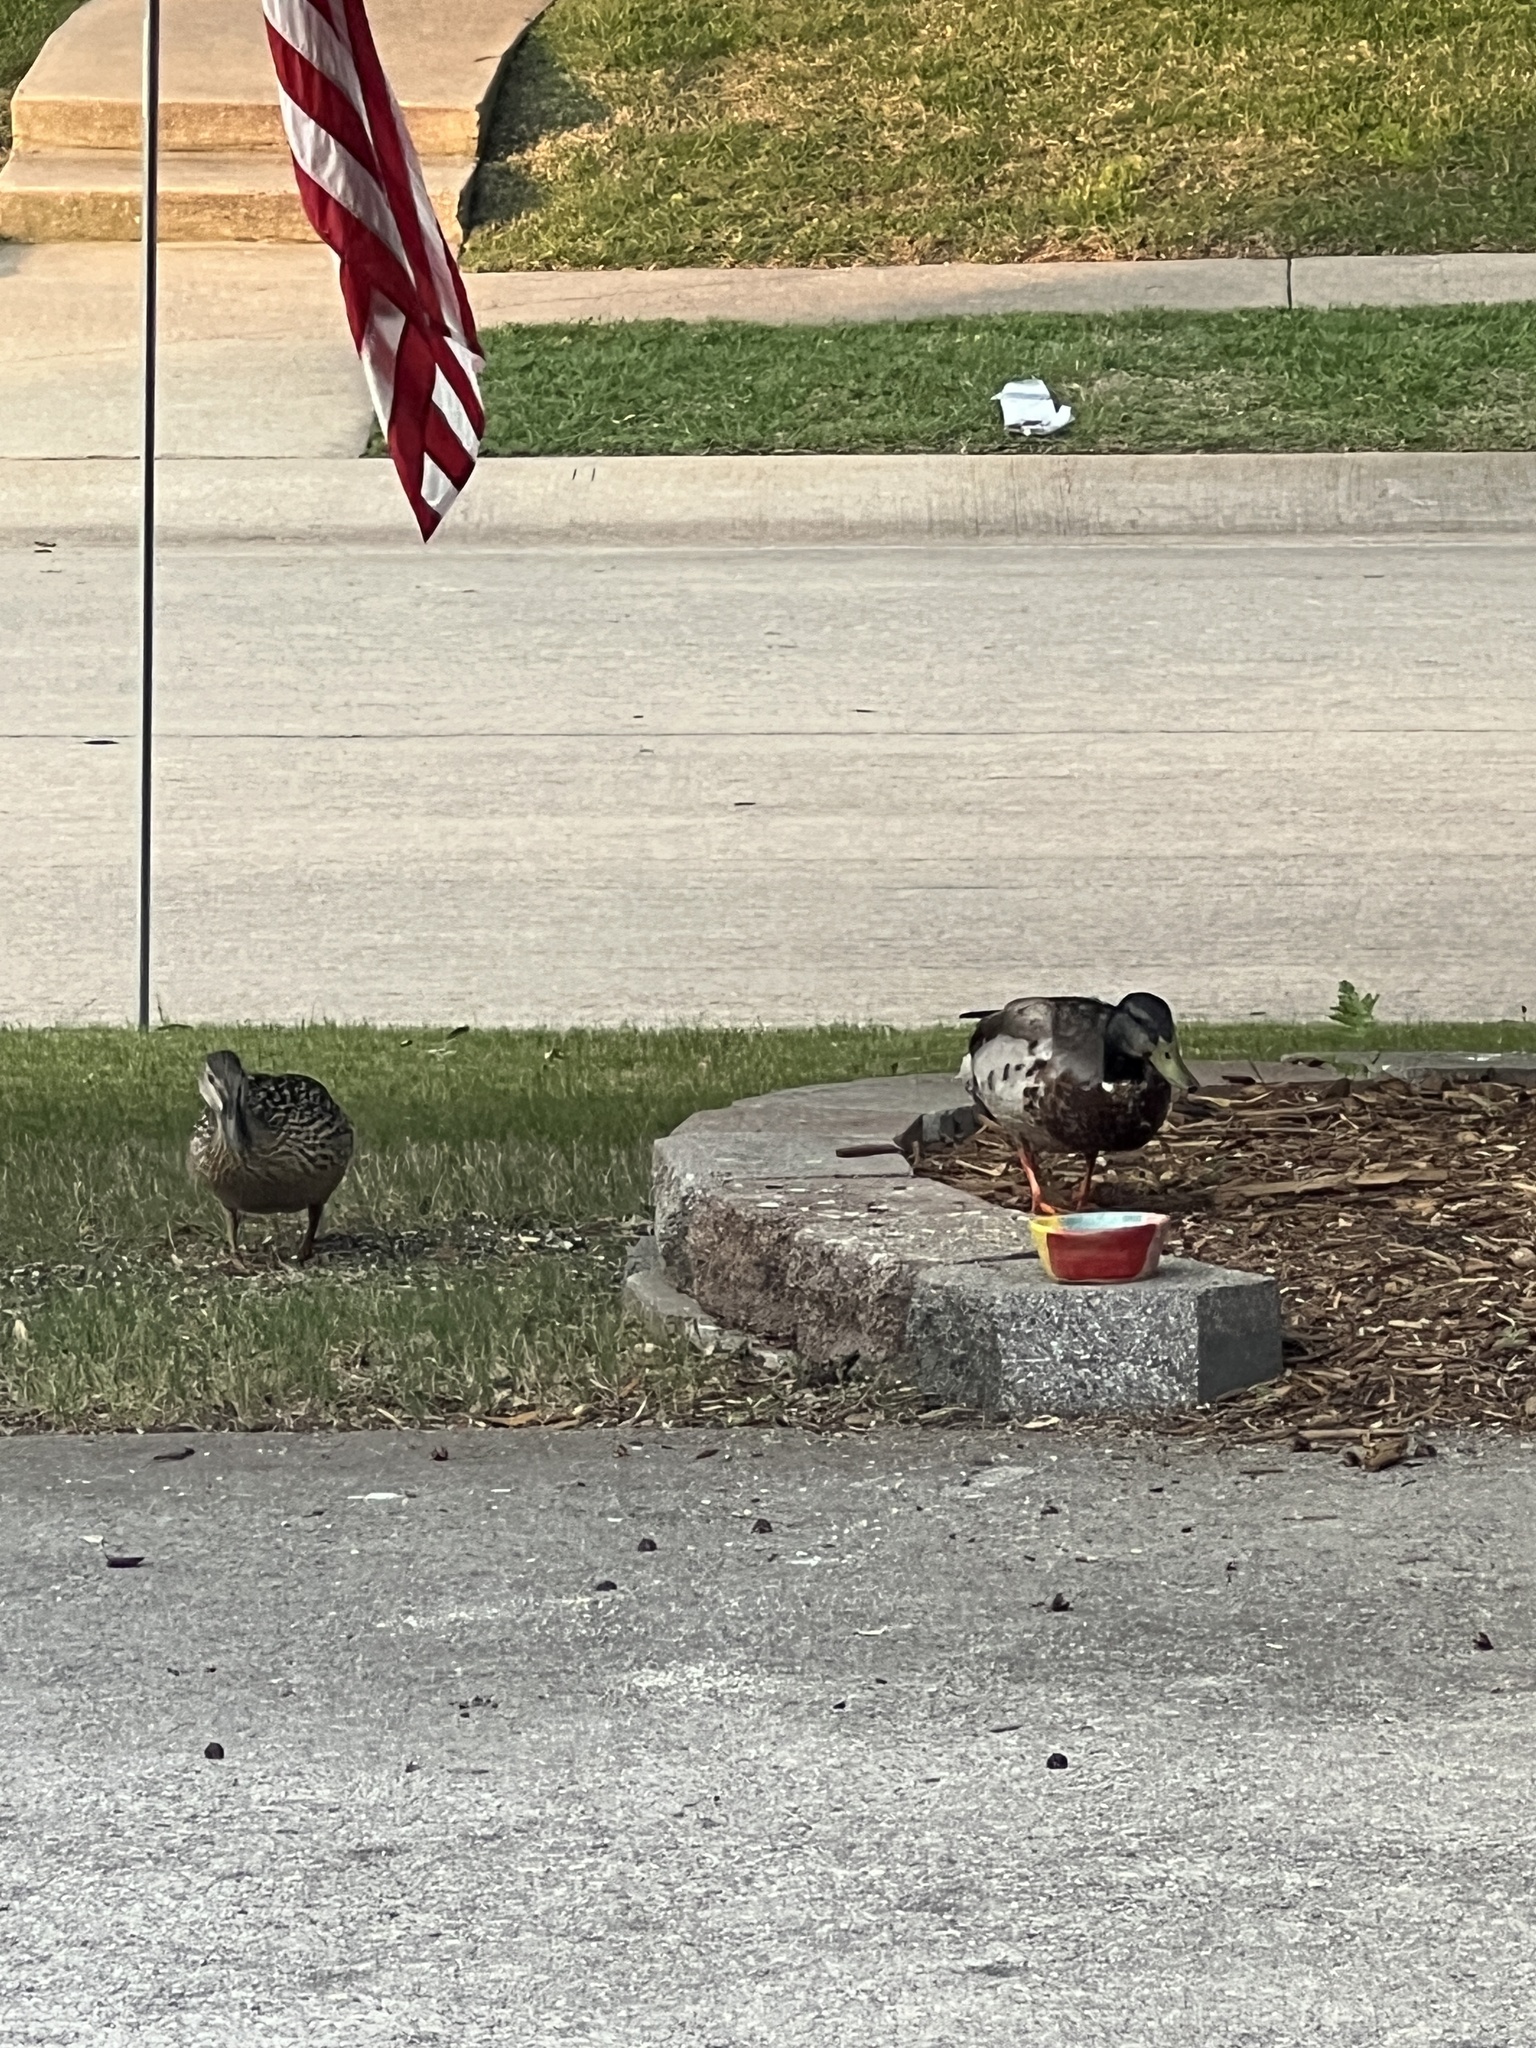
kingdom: Animalia
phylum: Chordata
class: Aves
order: Anseriformes
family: Anatidae
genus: Anas
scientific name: Anas platyrhynchos
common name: Mallard
